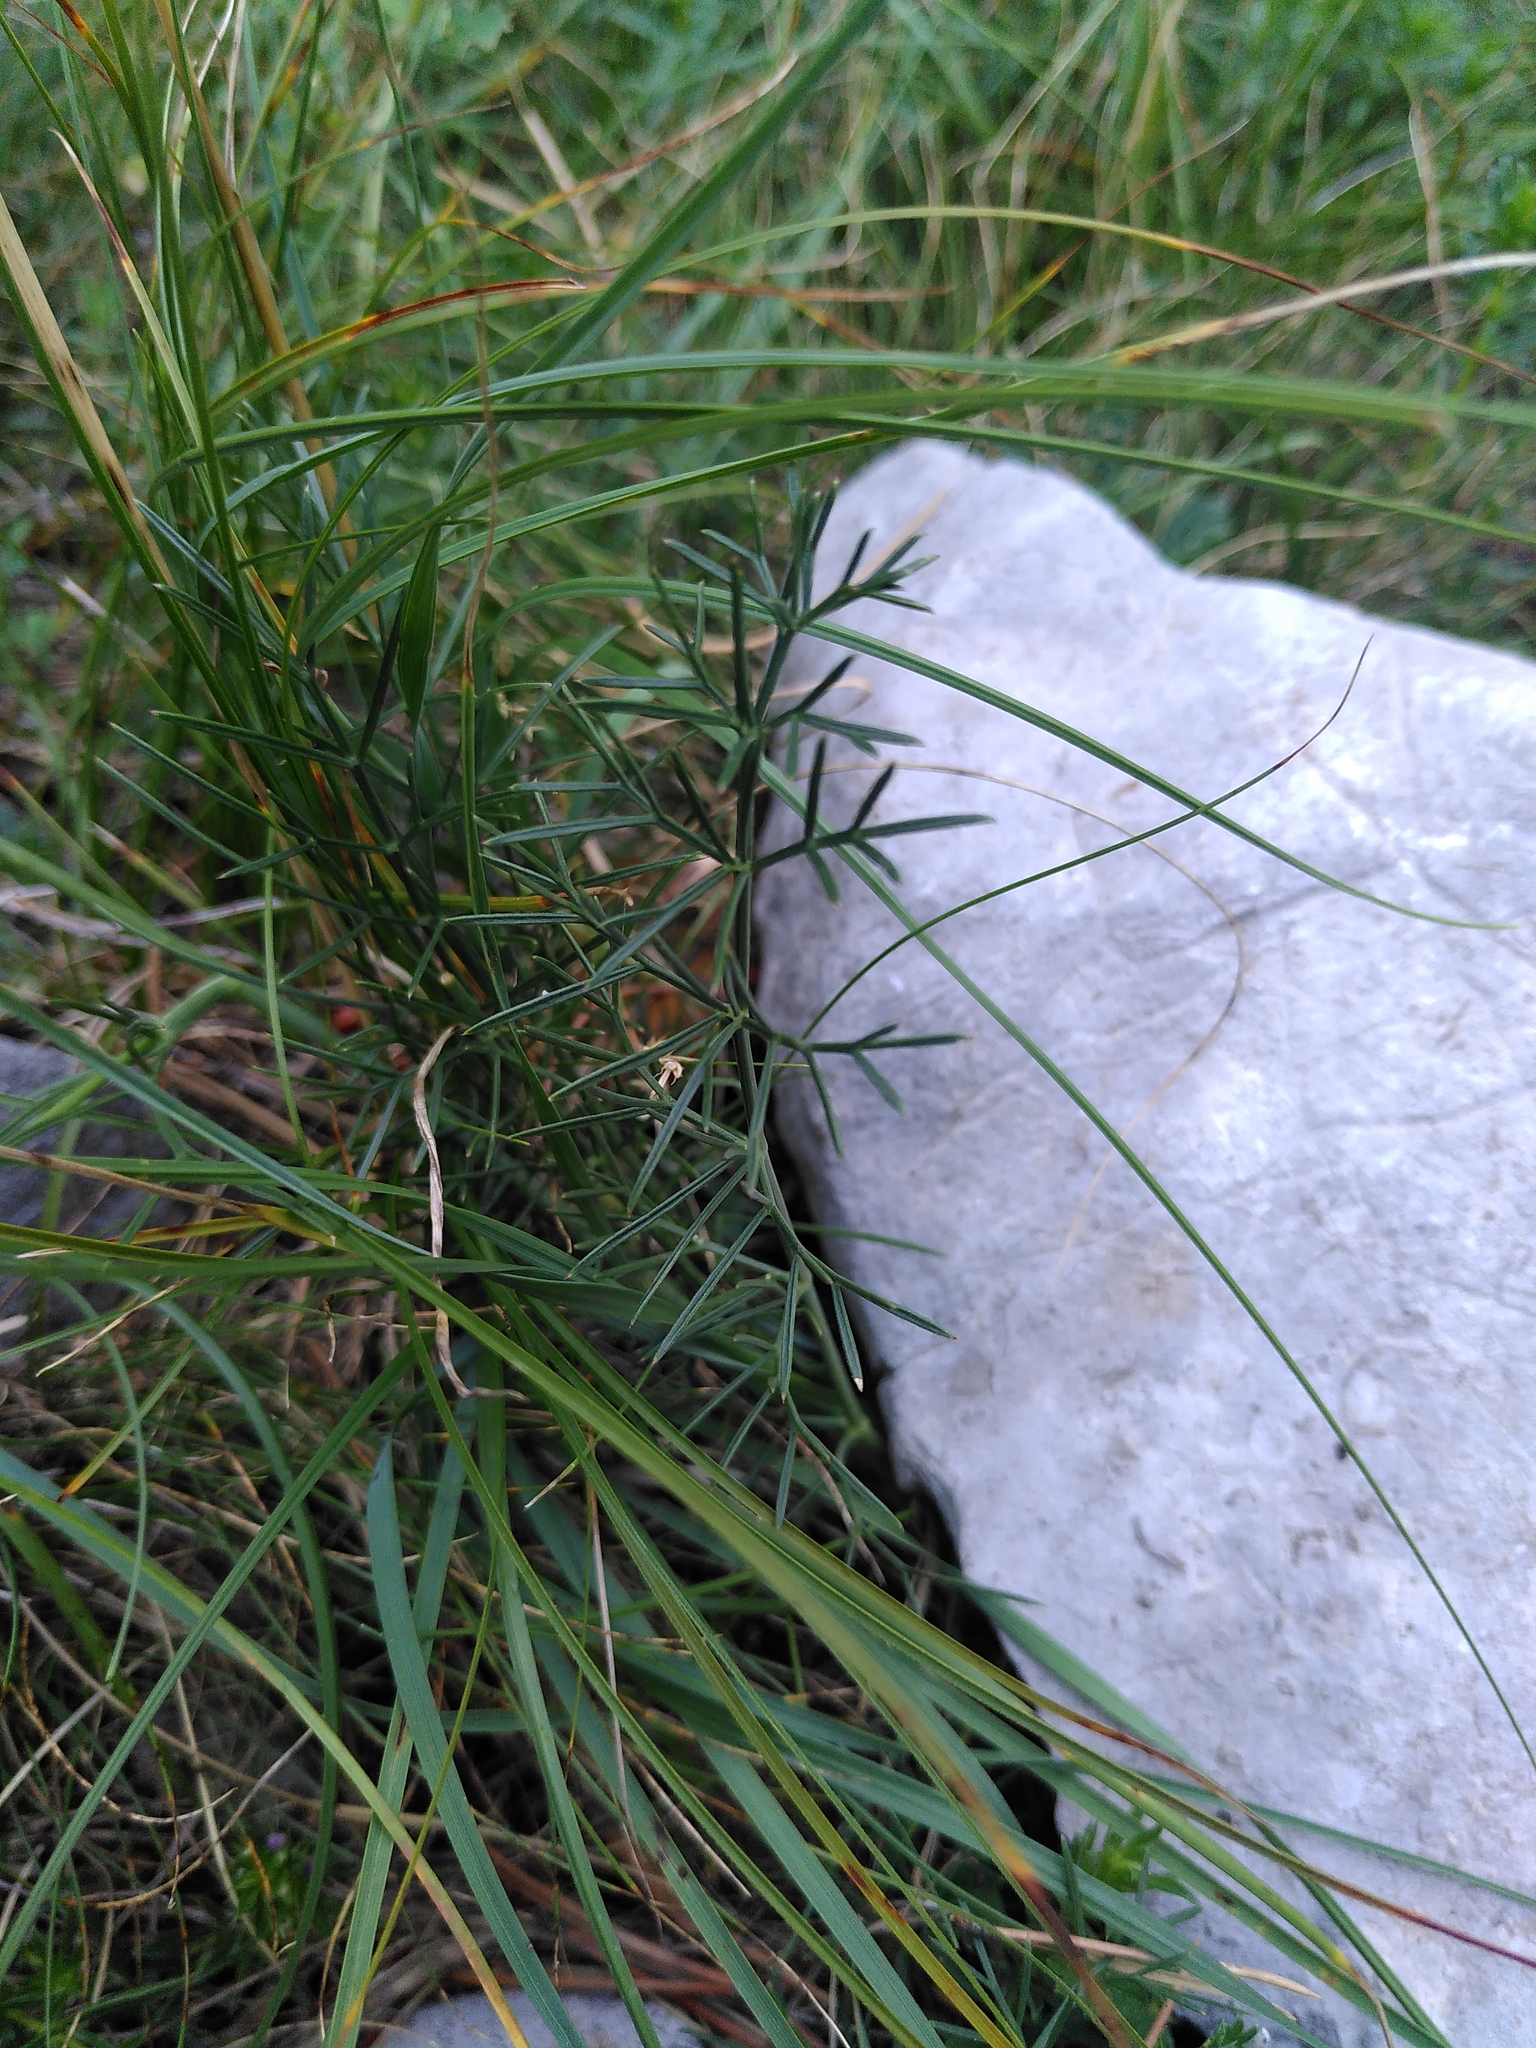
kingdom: Plantae
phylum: Tracheophyta
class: Magnoliopsida
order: Apiales
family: Apiaceae
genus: Seseli
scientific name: Seseli montanum
